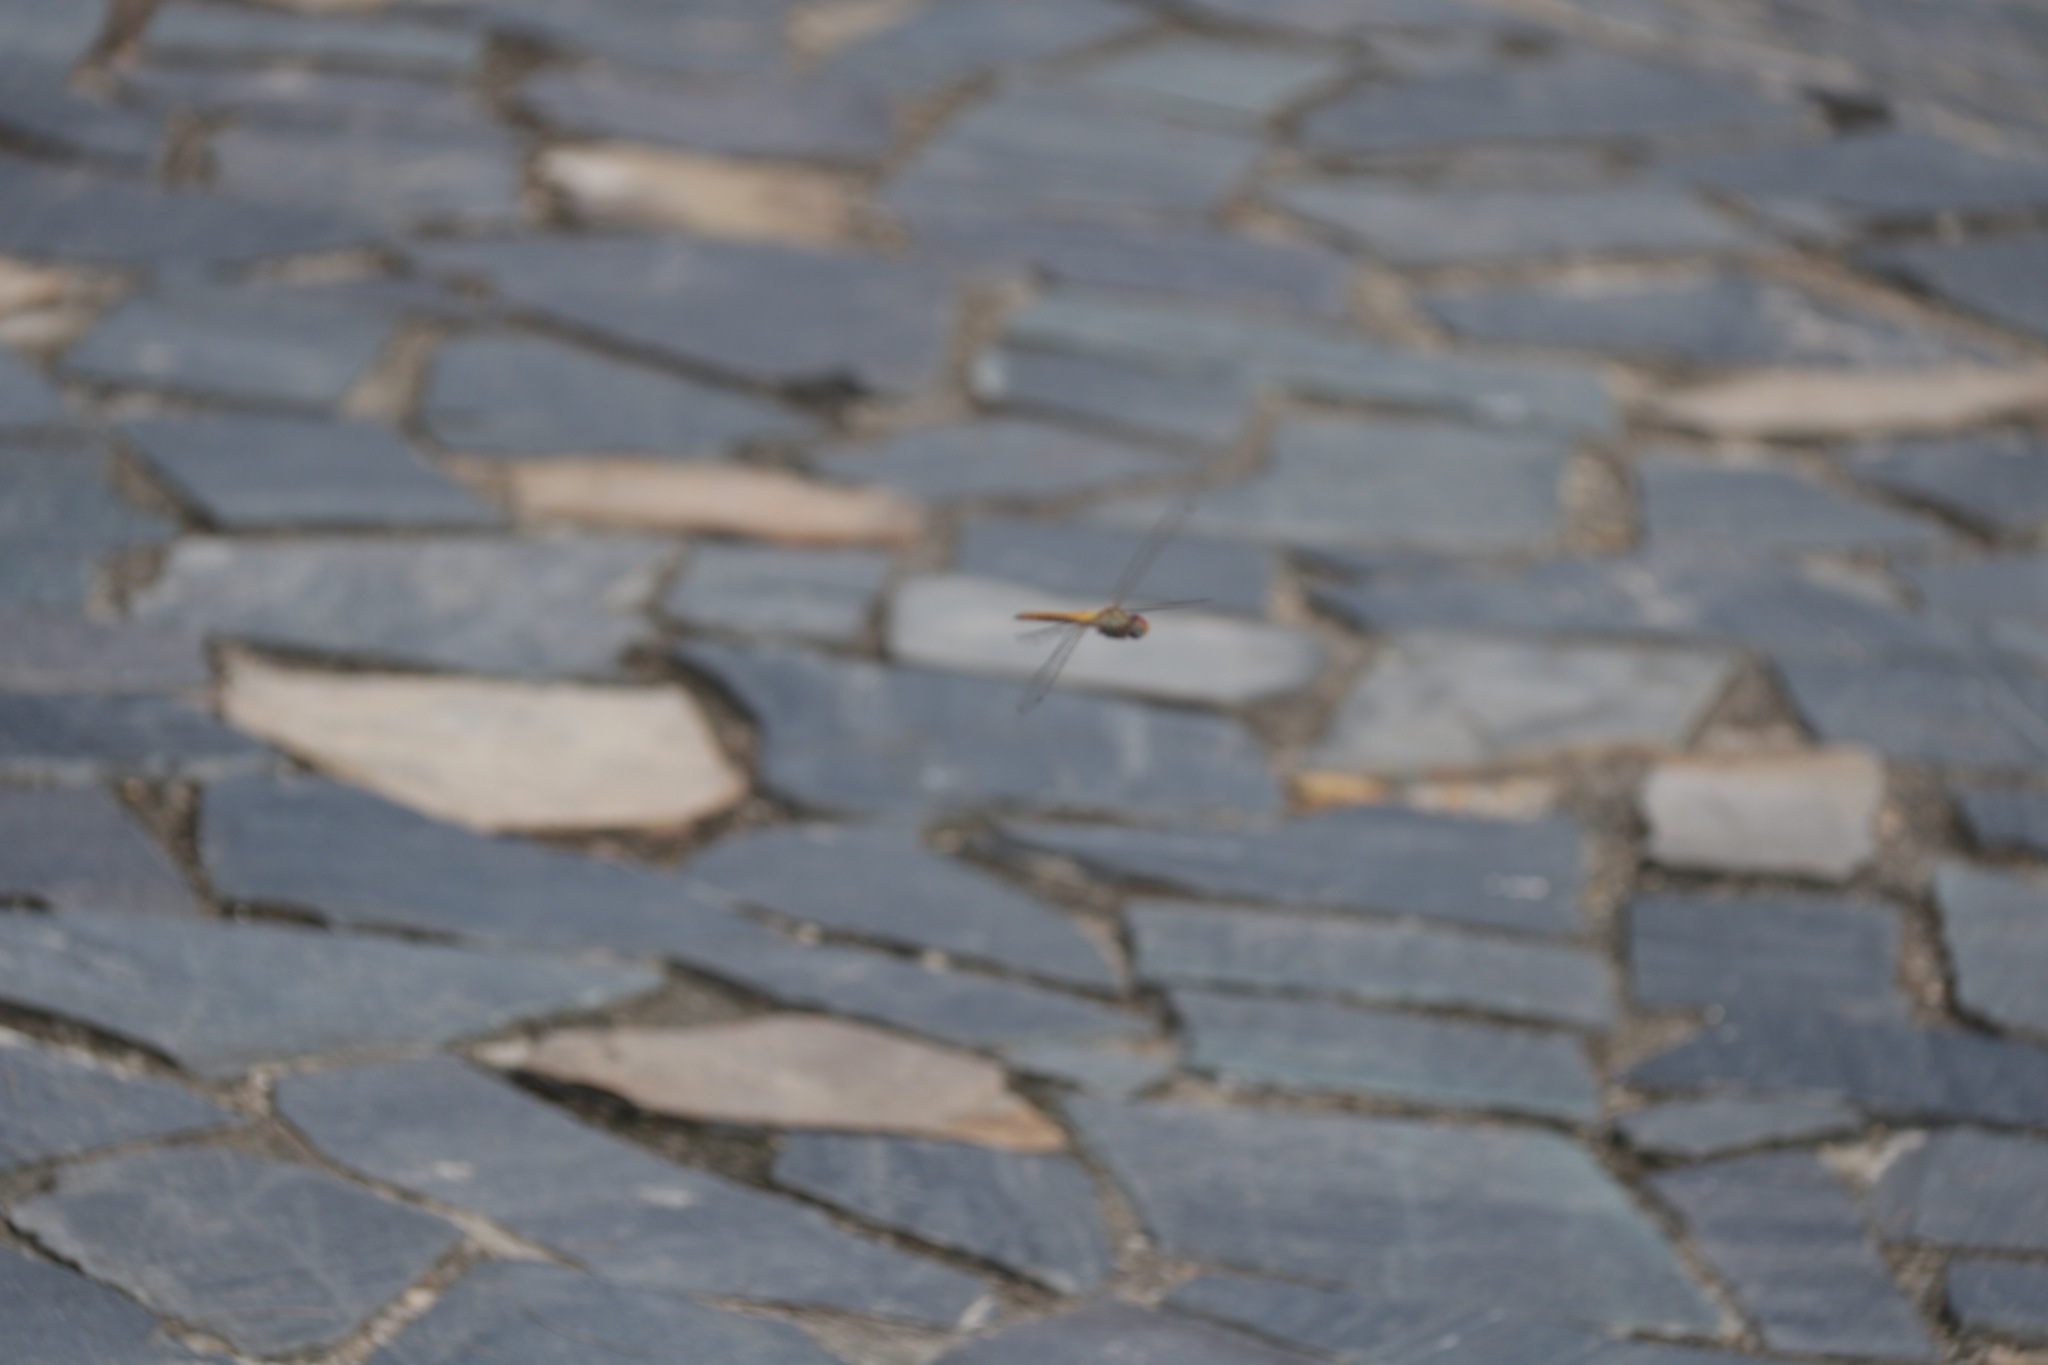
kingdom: Animalia
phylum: Arthropoda
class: Insecta
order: Odonata
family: Libellulidae
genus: Pantala
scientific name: Pantala flavescens
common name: Wandering glider
